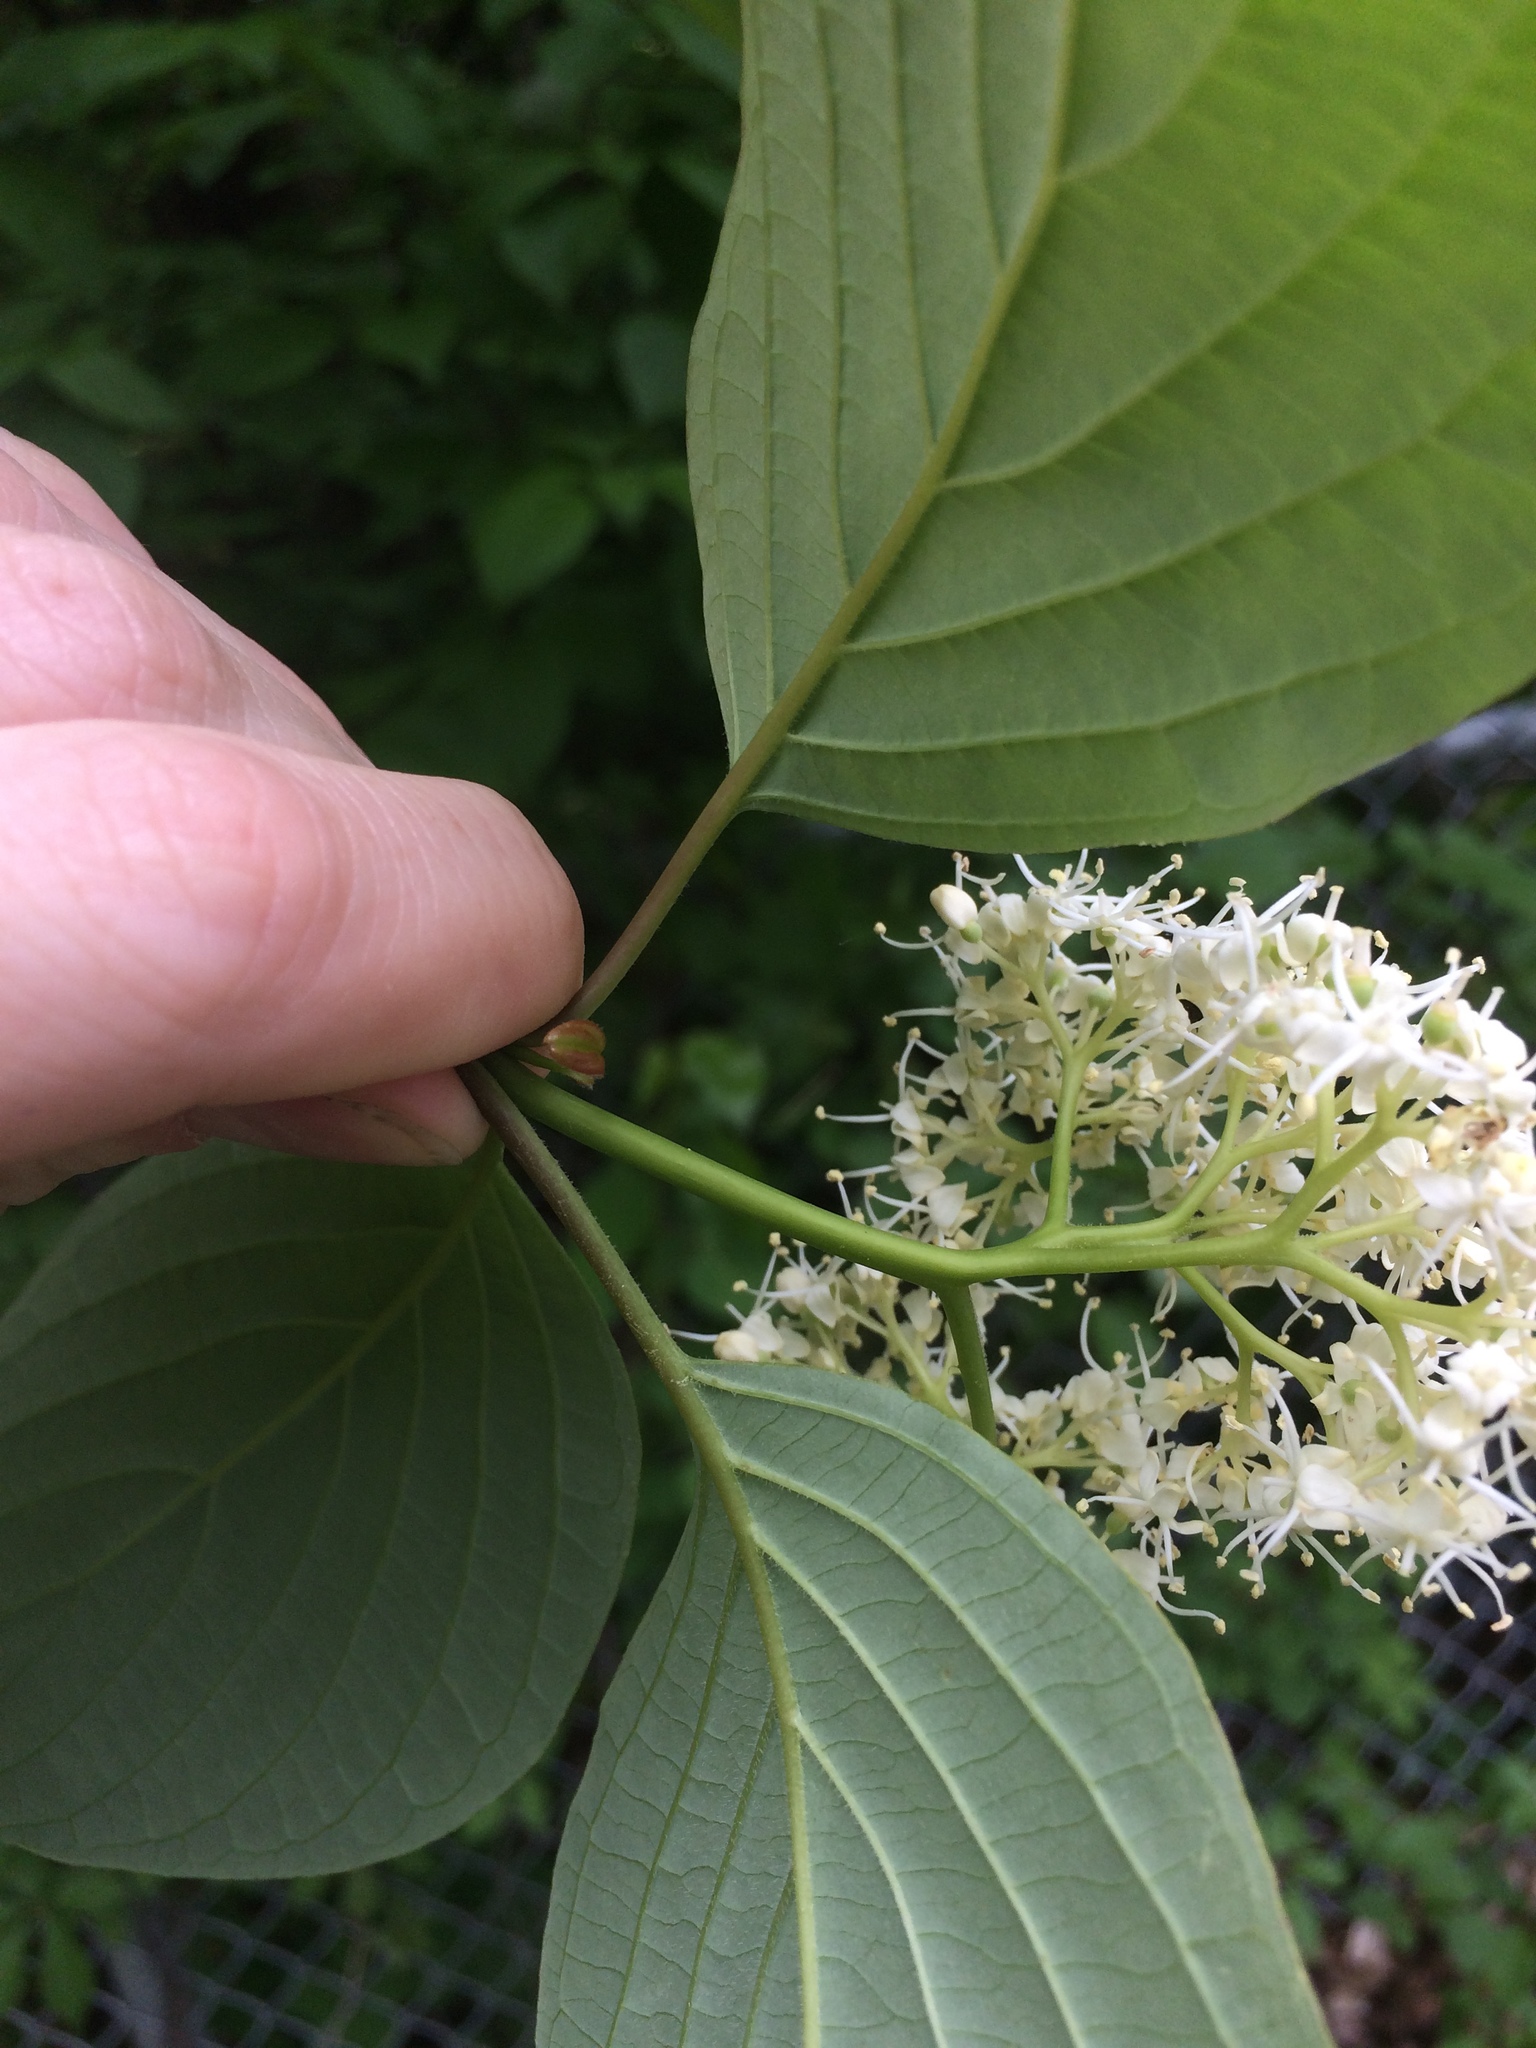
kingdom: Plantae
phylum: Tracheophyta
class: Magnoliopsida
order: Cornales
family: Cornaceae
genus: Cornus
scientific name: Cornus alternifolia
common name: Pagoda dogwood
